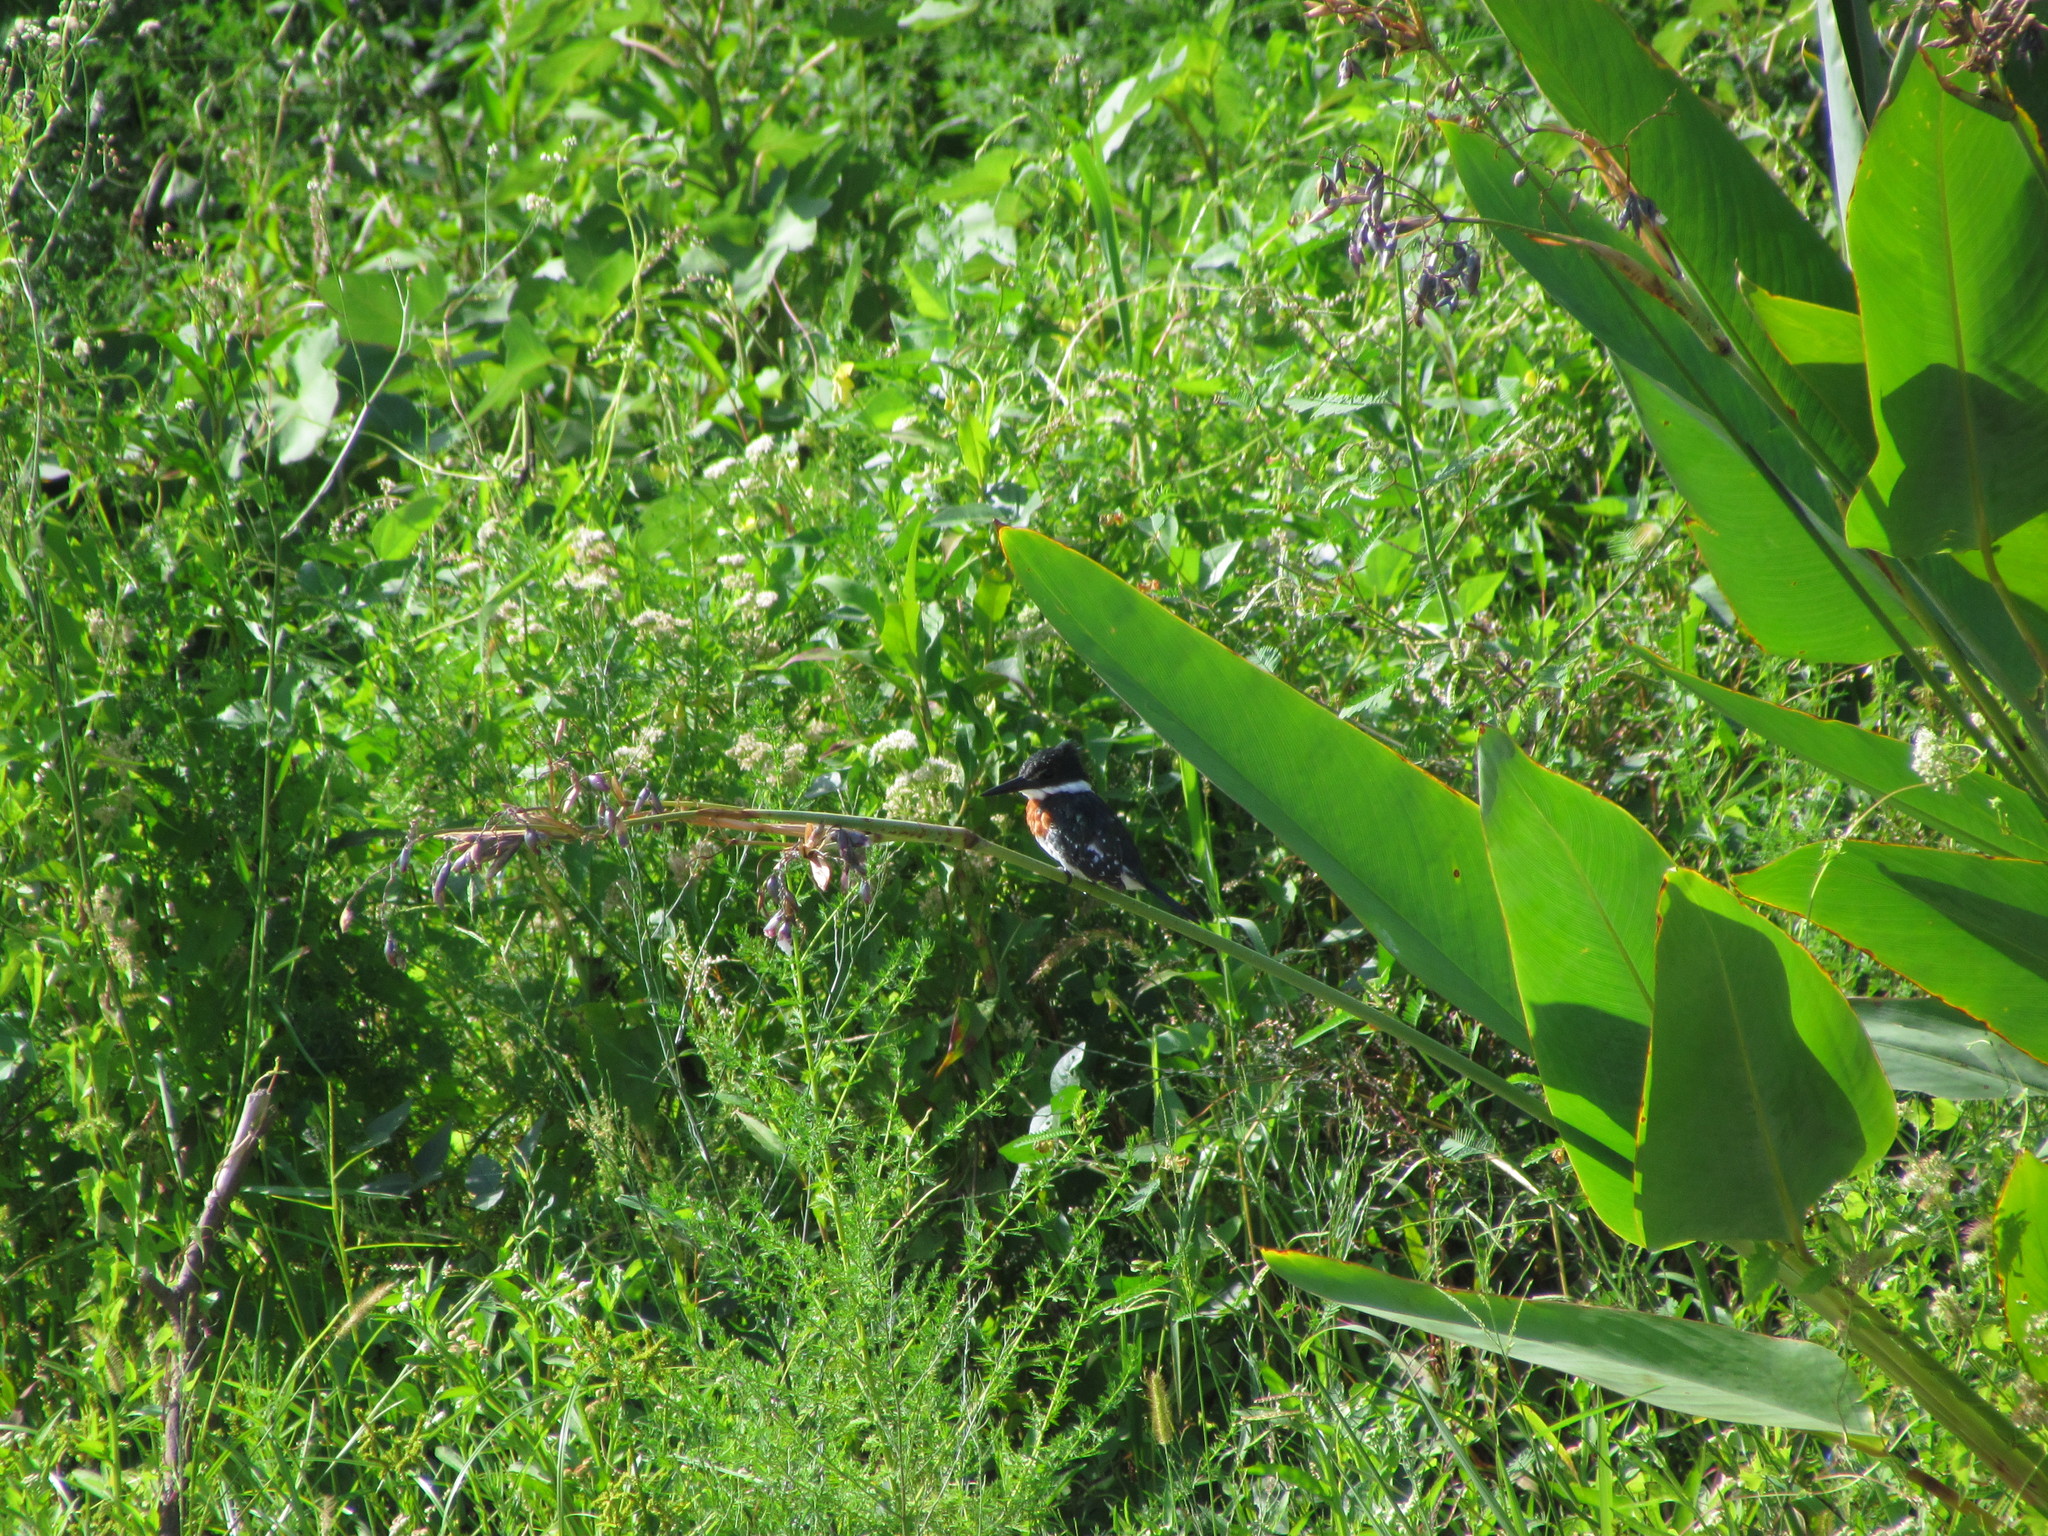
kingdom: Animalia
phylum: Chordata
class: Aves
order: Coraciiformes
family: Alcedinidae
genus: Chloroceryle
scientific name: Chloroceryle americana
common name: Green kingfisher
